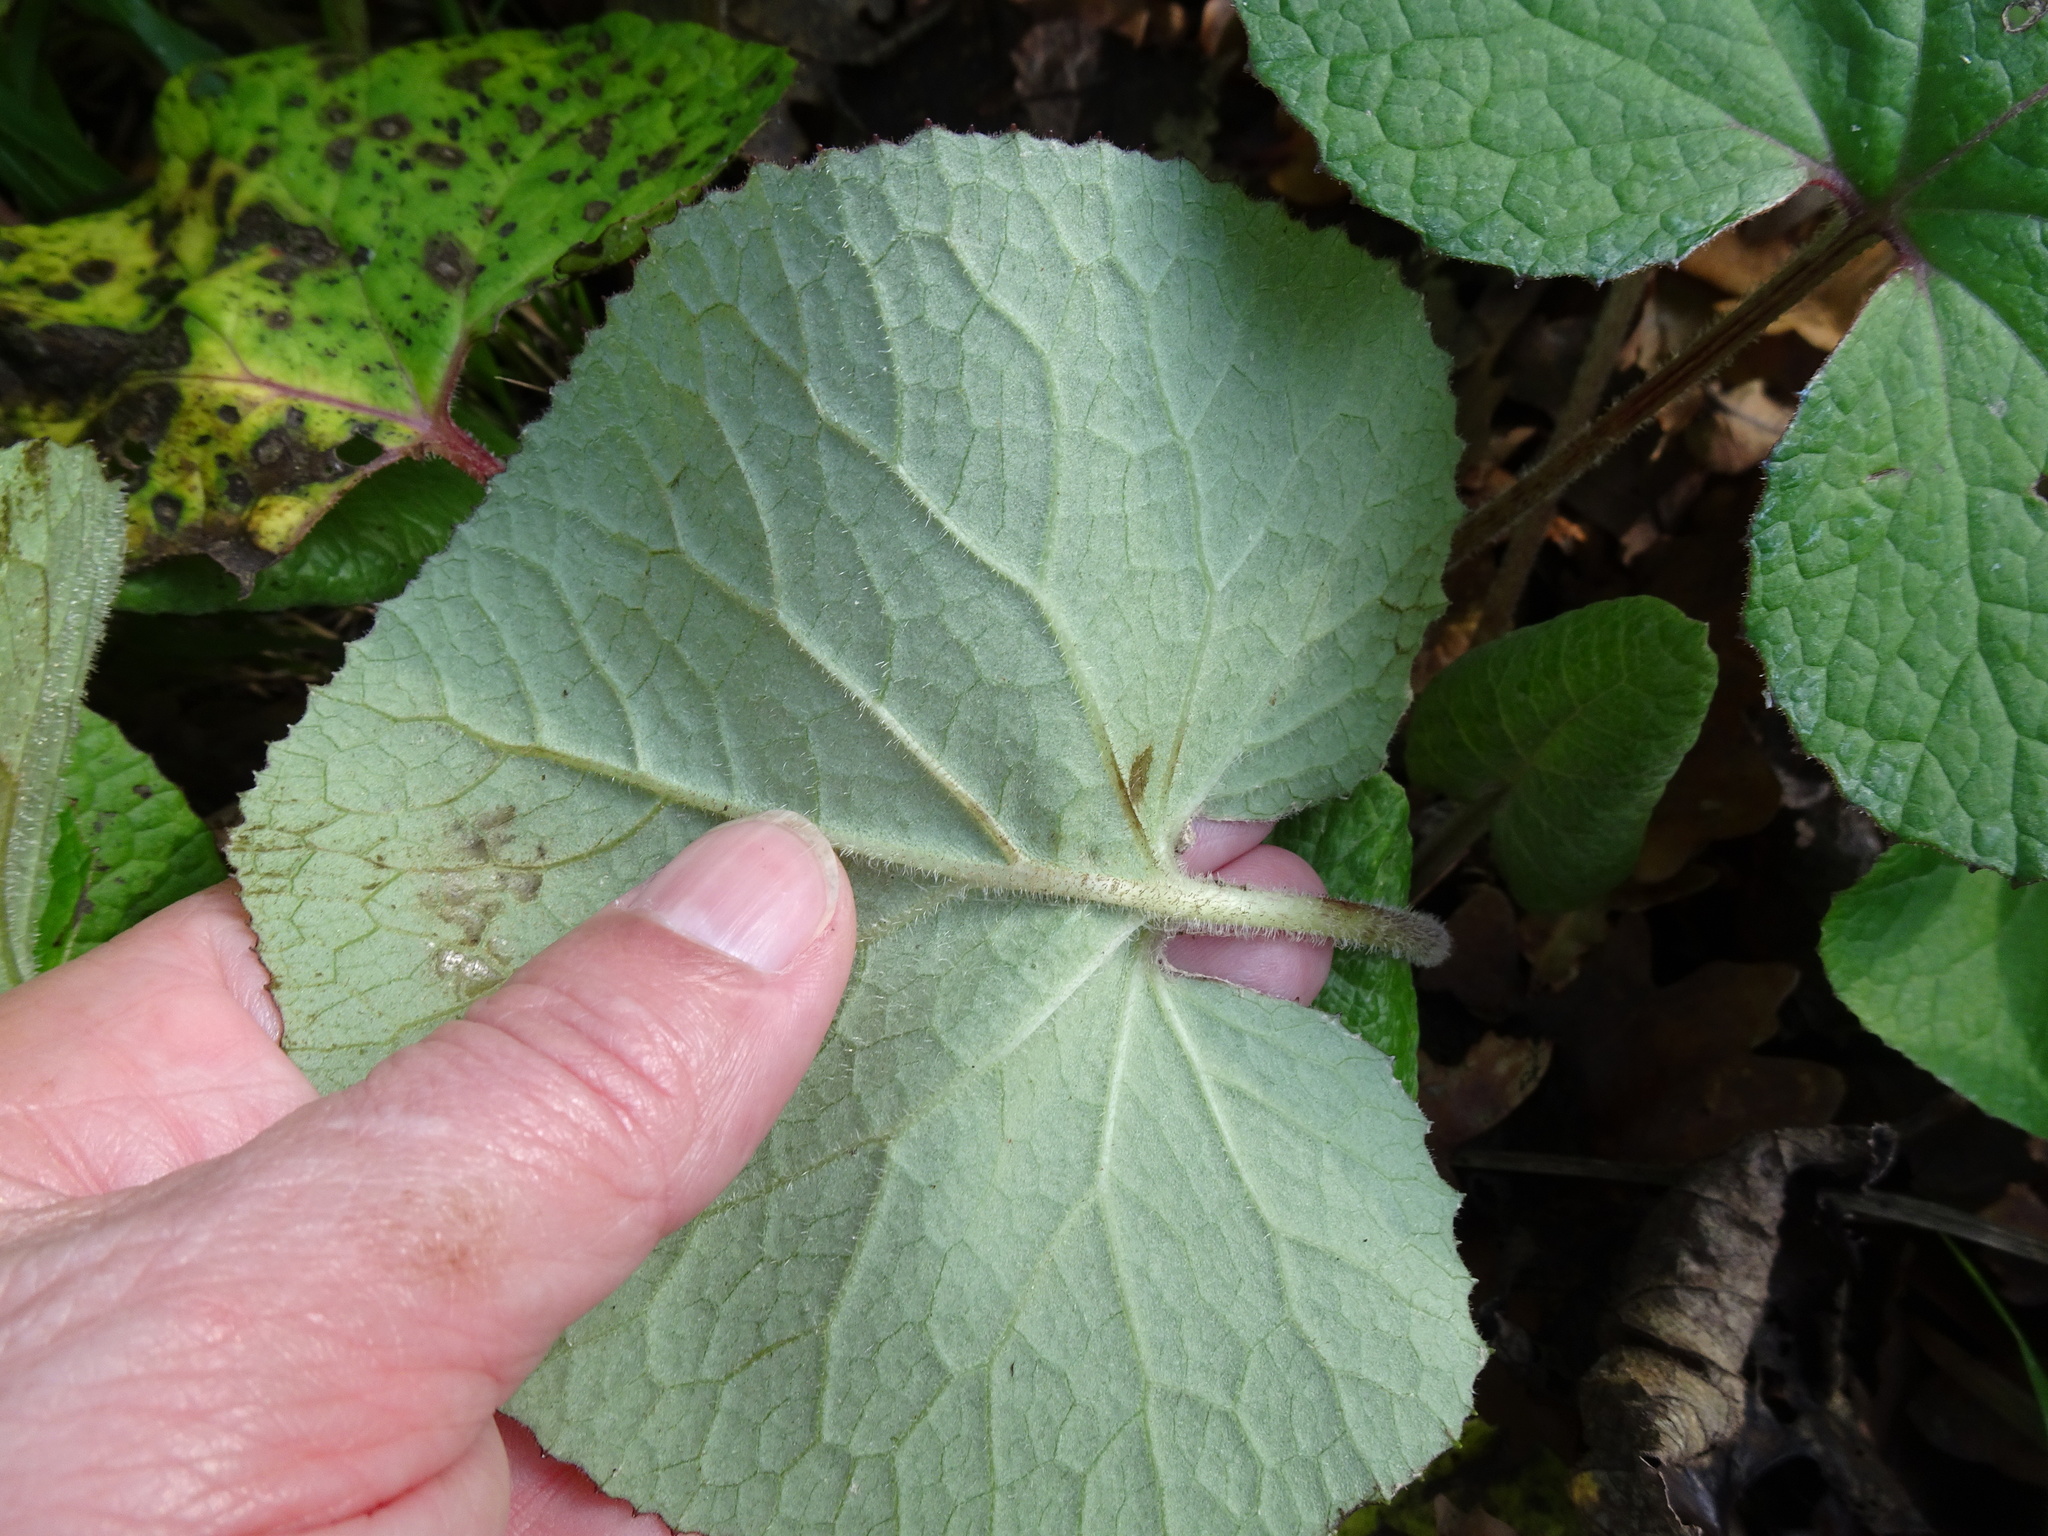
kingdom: Plantae
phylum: Tracheophyta
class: Magnoliopsida
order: Asterales
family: Asteraceae
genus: Petasites
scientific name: Petasites pyrenaicus
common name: Winter heliotrope
